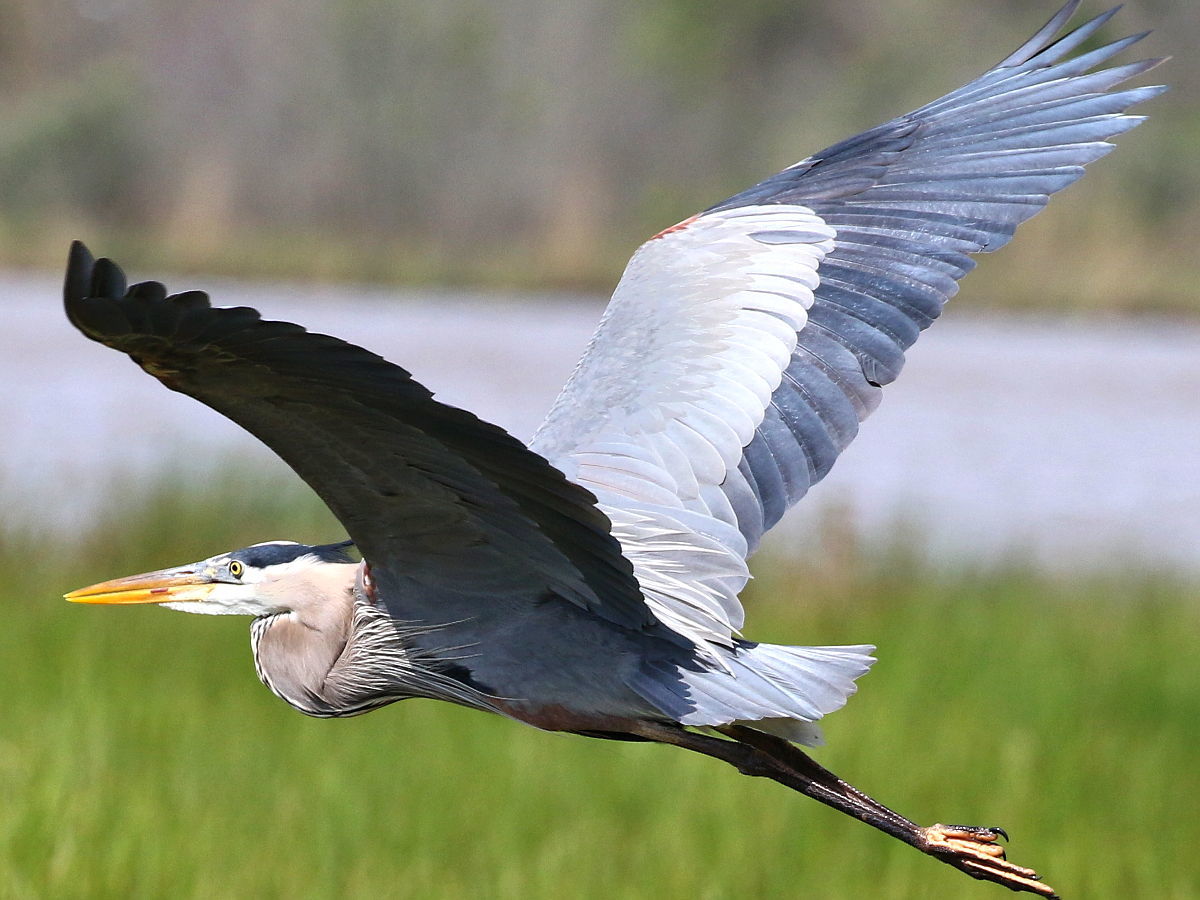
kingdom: Animalia
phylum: Chordata
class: Aves
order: Pelecaniformes
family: Ardeidae
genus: Ardea
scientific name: Ardea herodias
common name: Great blue heron
